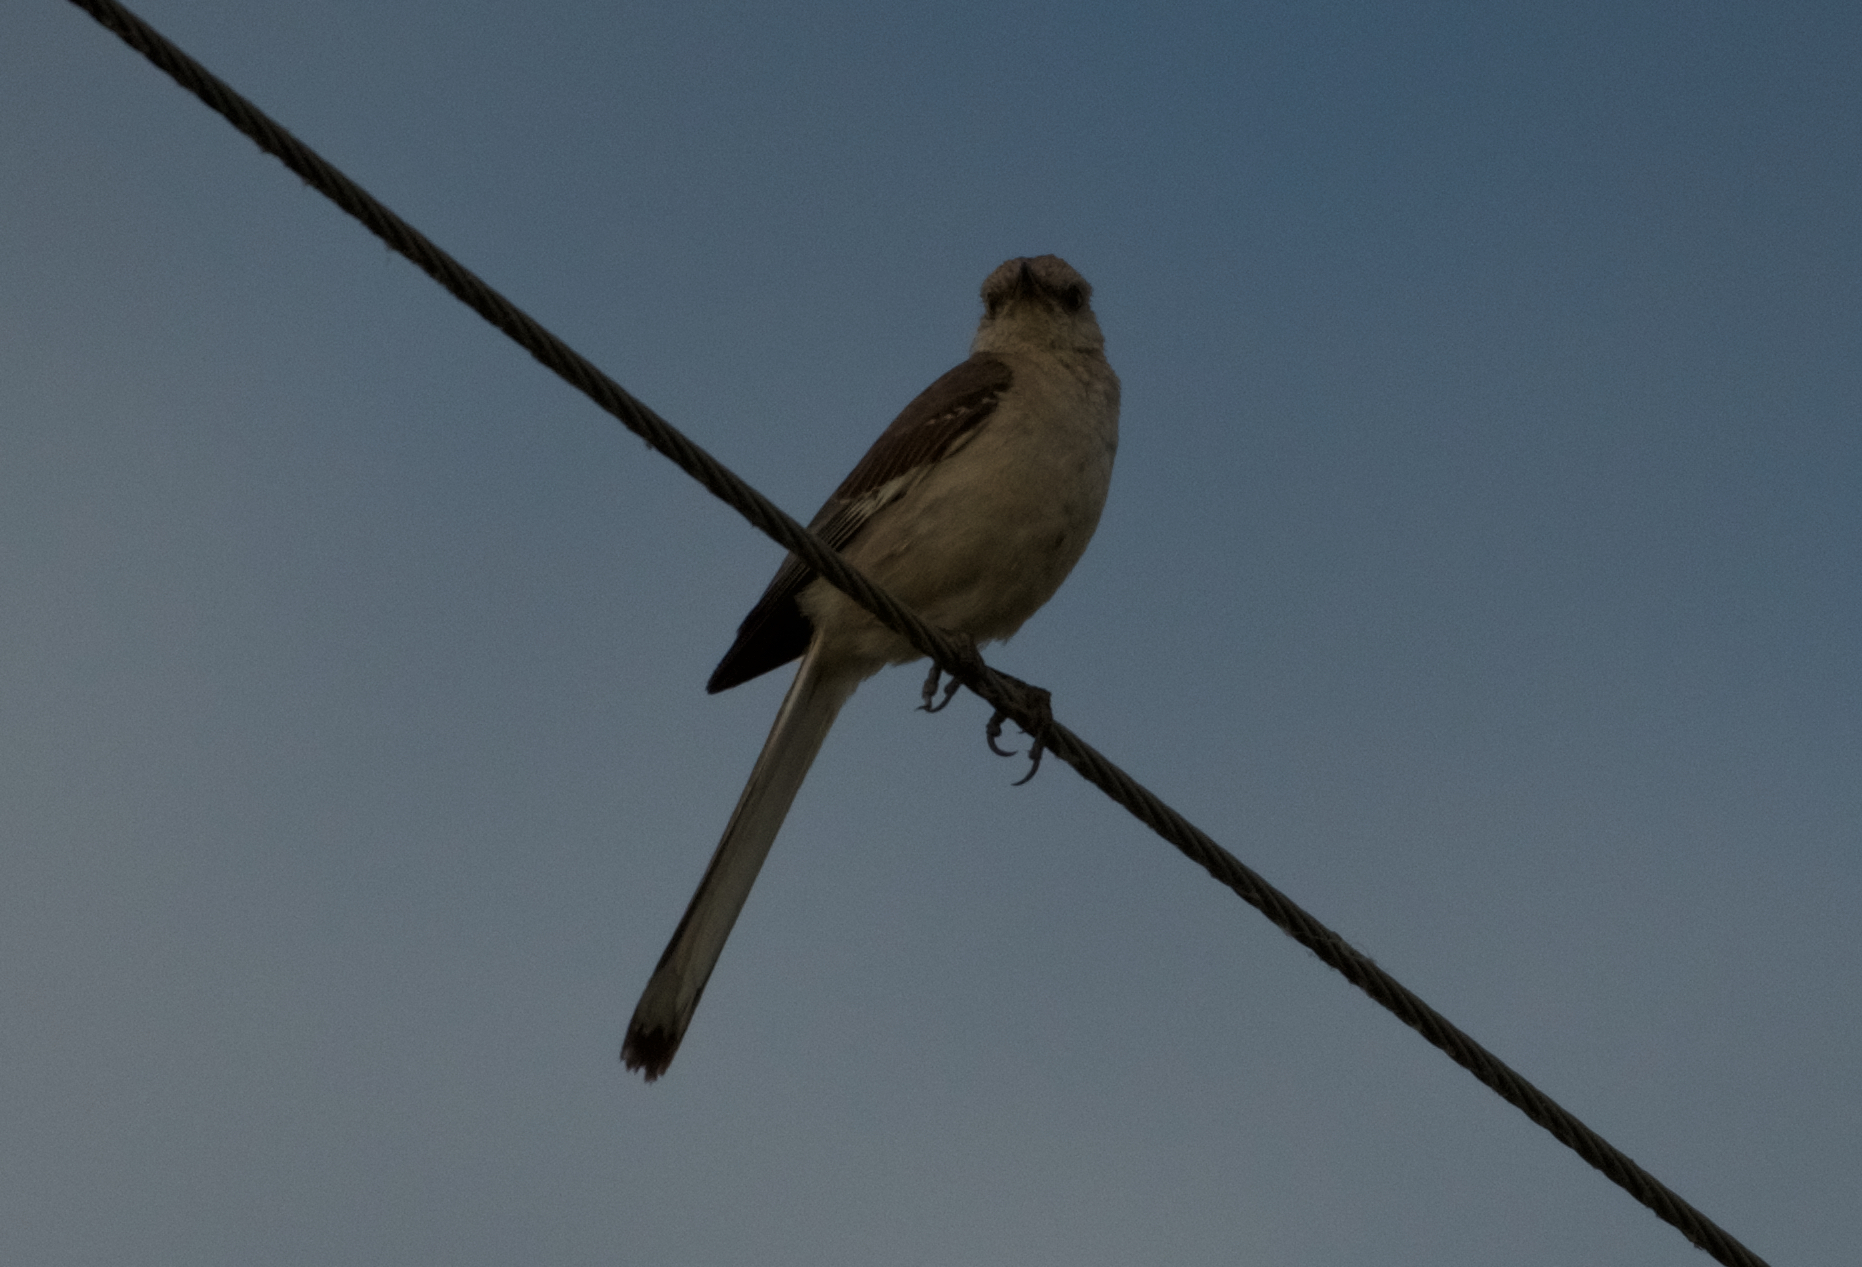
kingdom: Animalia
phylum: Chordata
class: Aves
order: Passeriformes
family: Mimidae
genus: Mimus
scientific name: Mimus polyglottos
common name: Northern mockingbird
